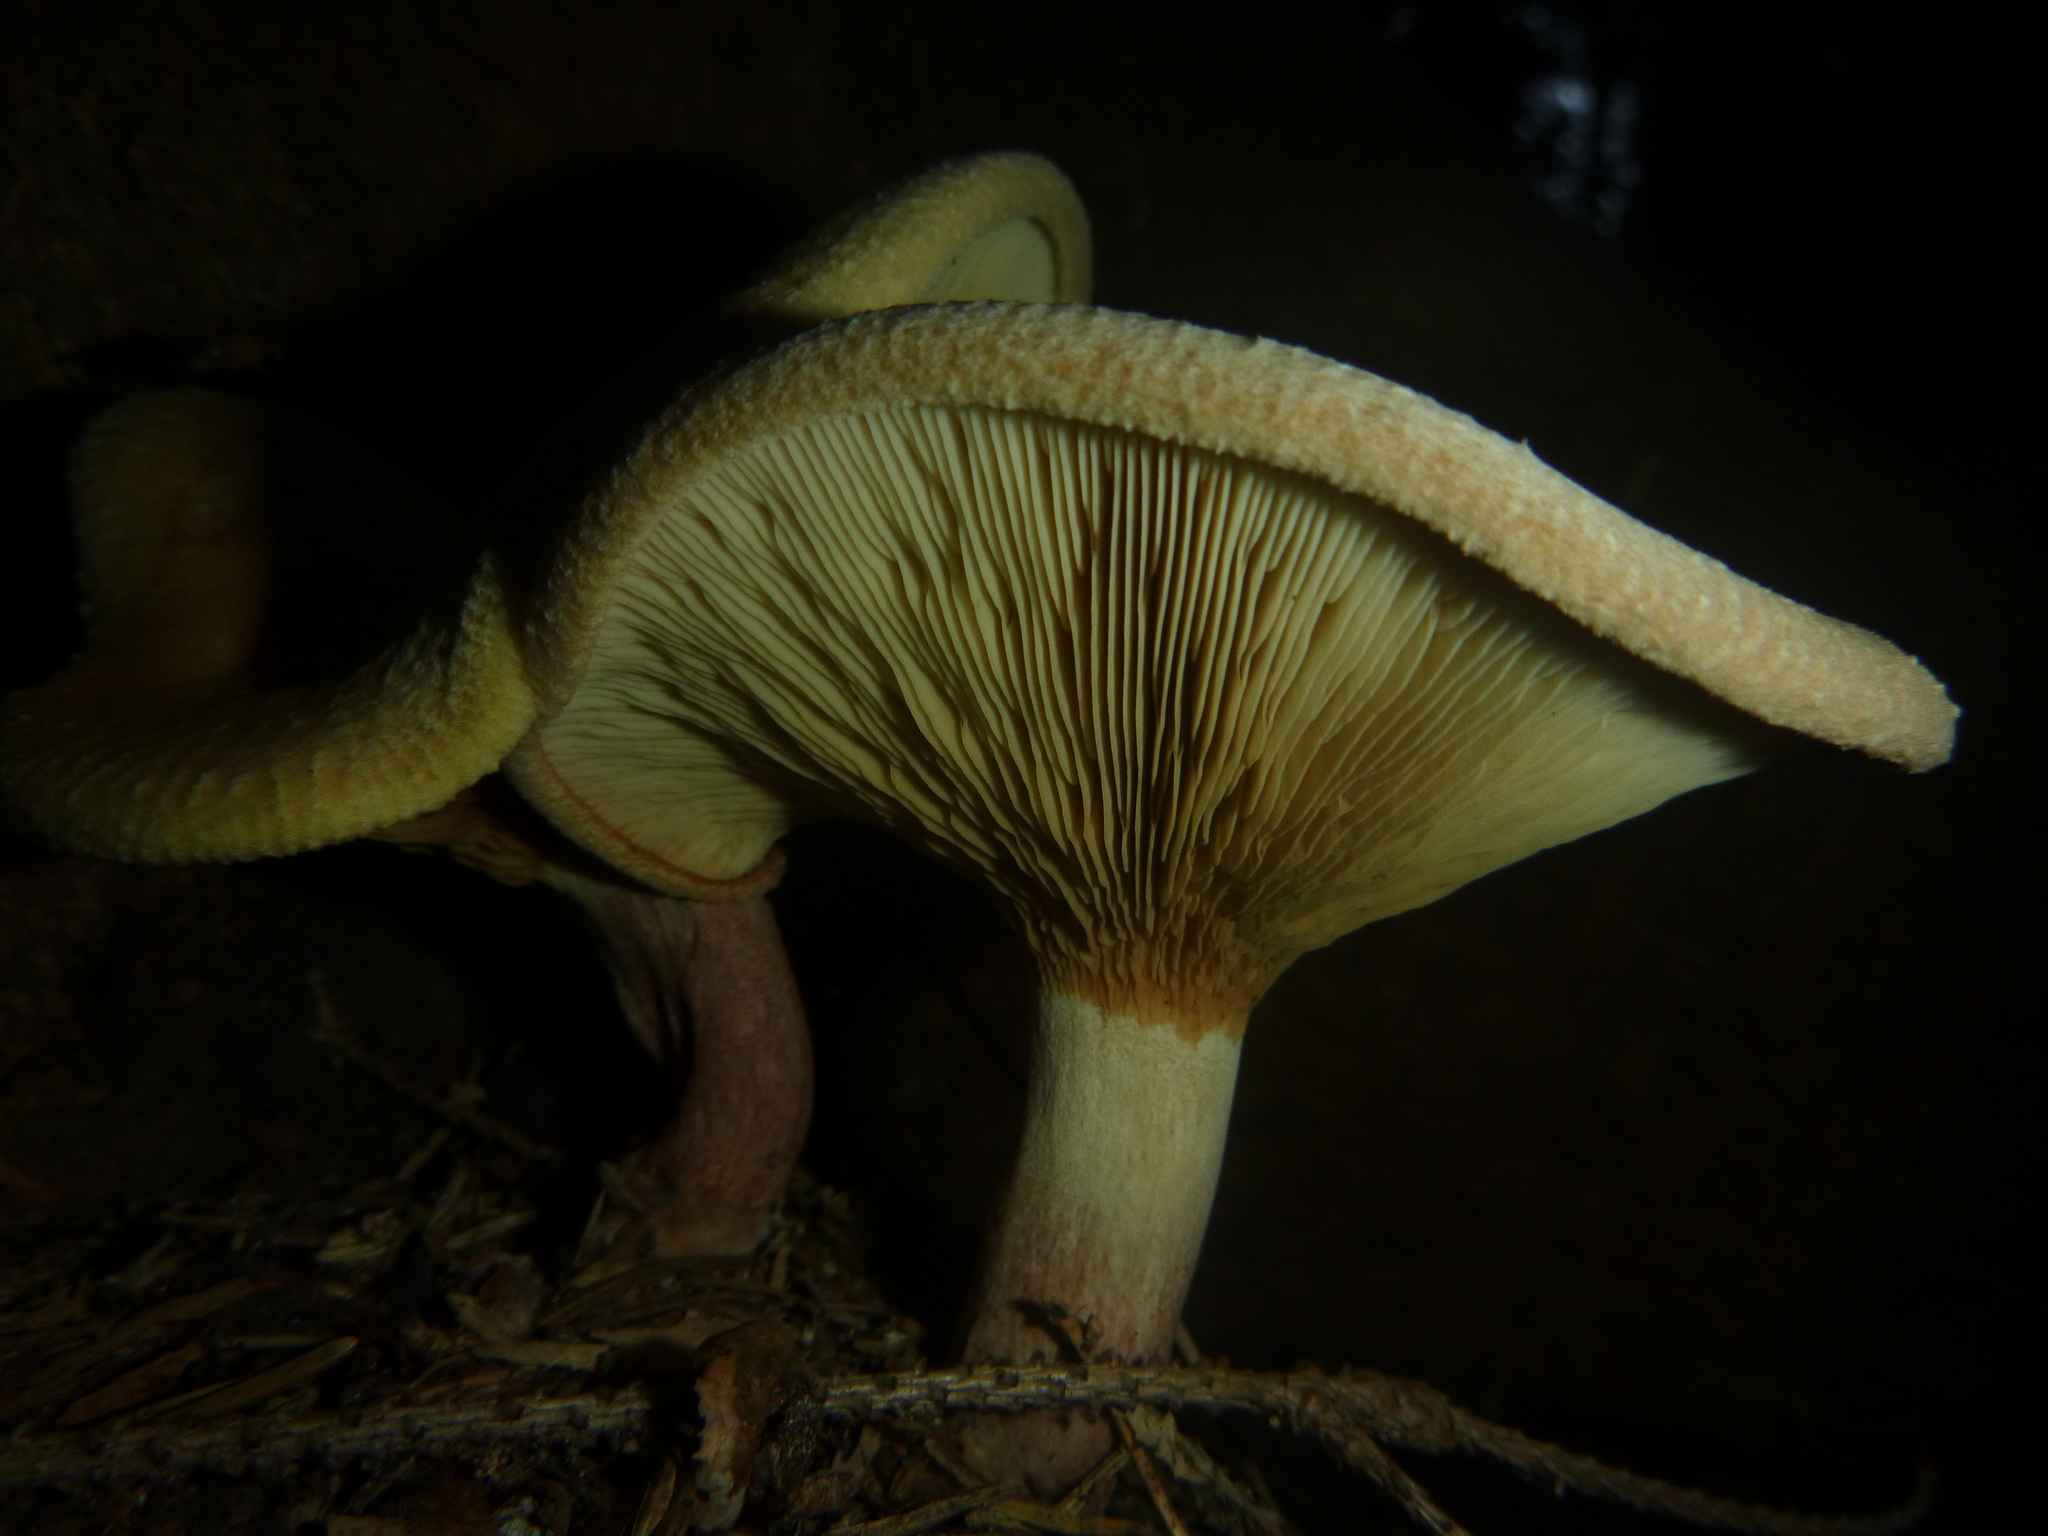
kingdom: Fungi
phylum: Basidiomycota
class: Agaricomycetes
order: Boletales
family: Paxillaceae
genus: Paxillus
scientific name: Paxillus involutus
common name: Brown roll rim
